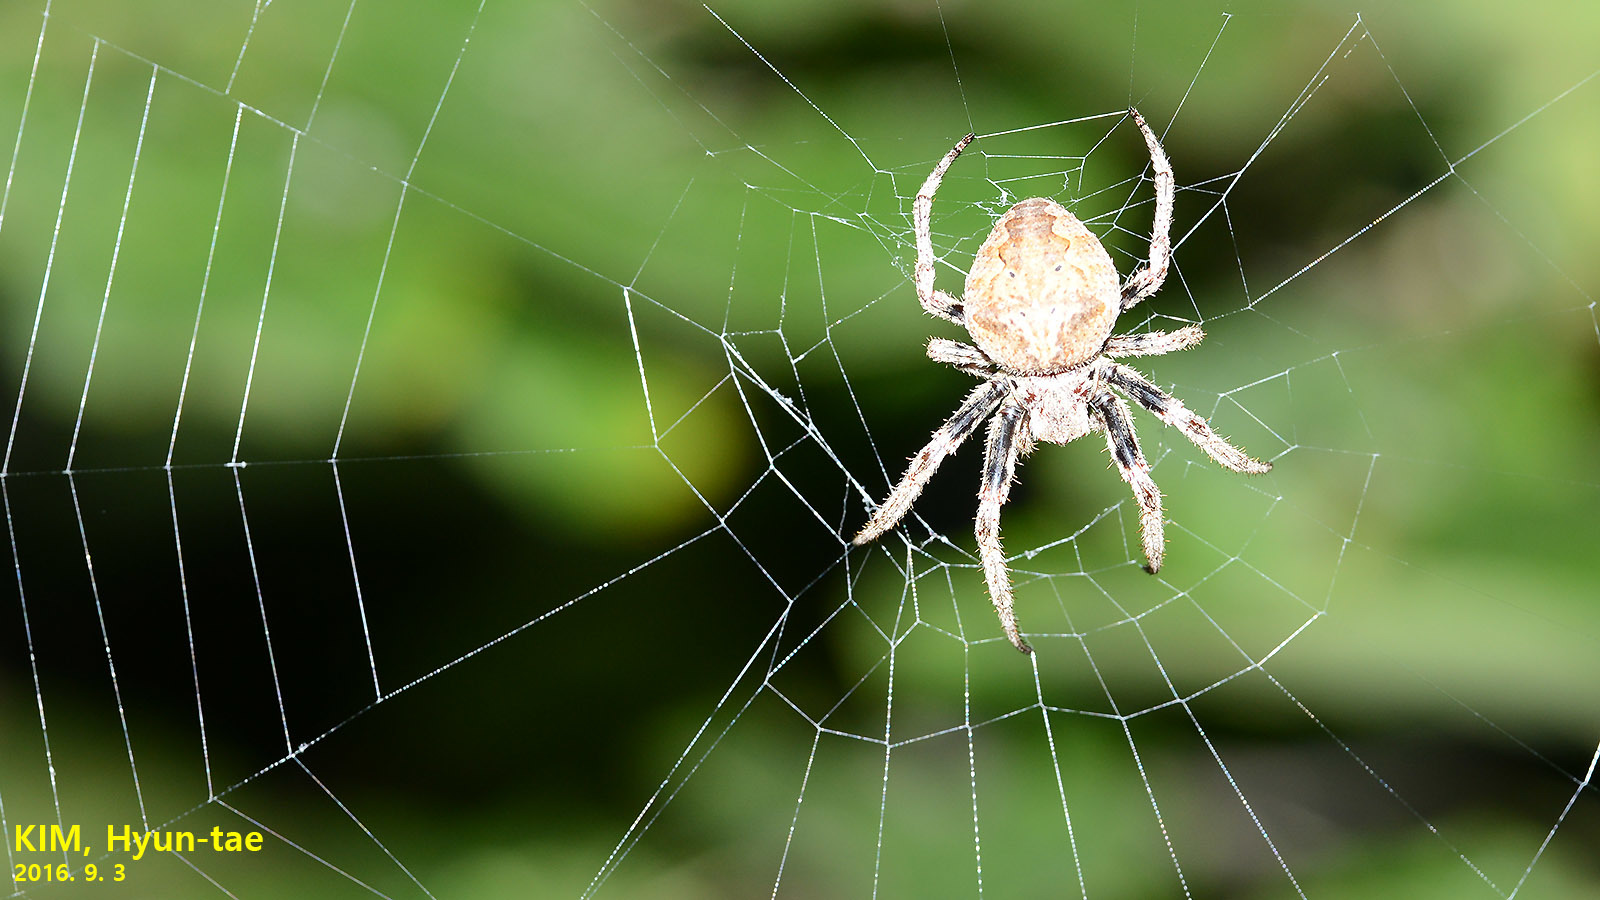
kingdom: Animalia
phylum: Arthropoda
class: Arachnida
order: Araneae
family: Araneidae
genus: Araneus
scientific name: Araneus ventricosus
